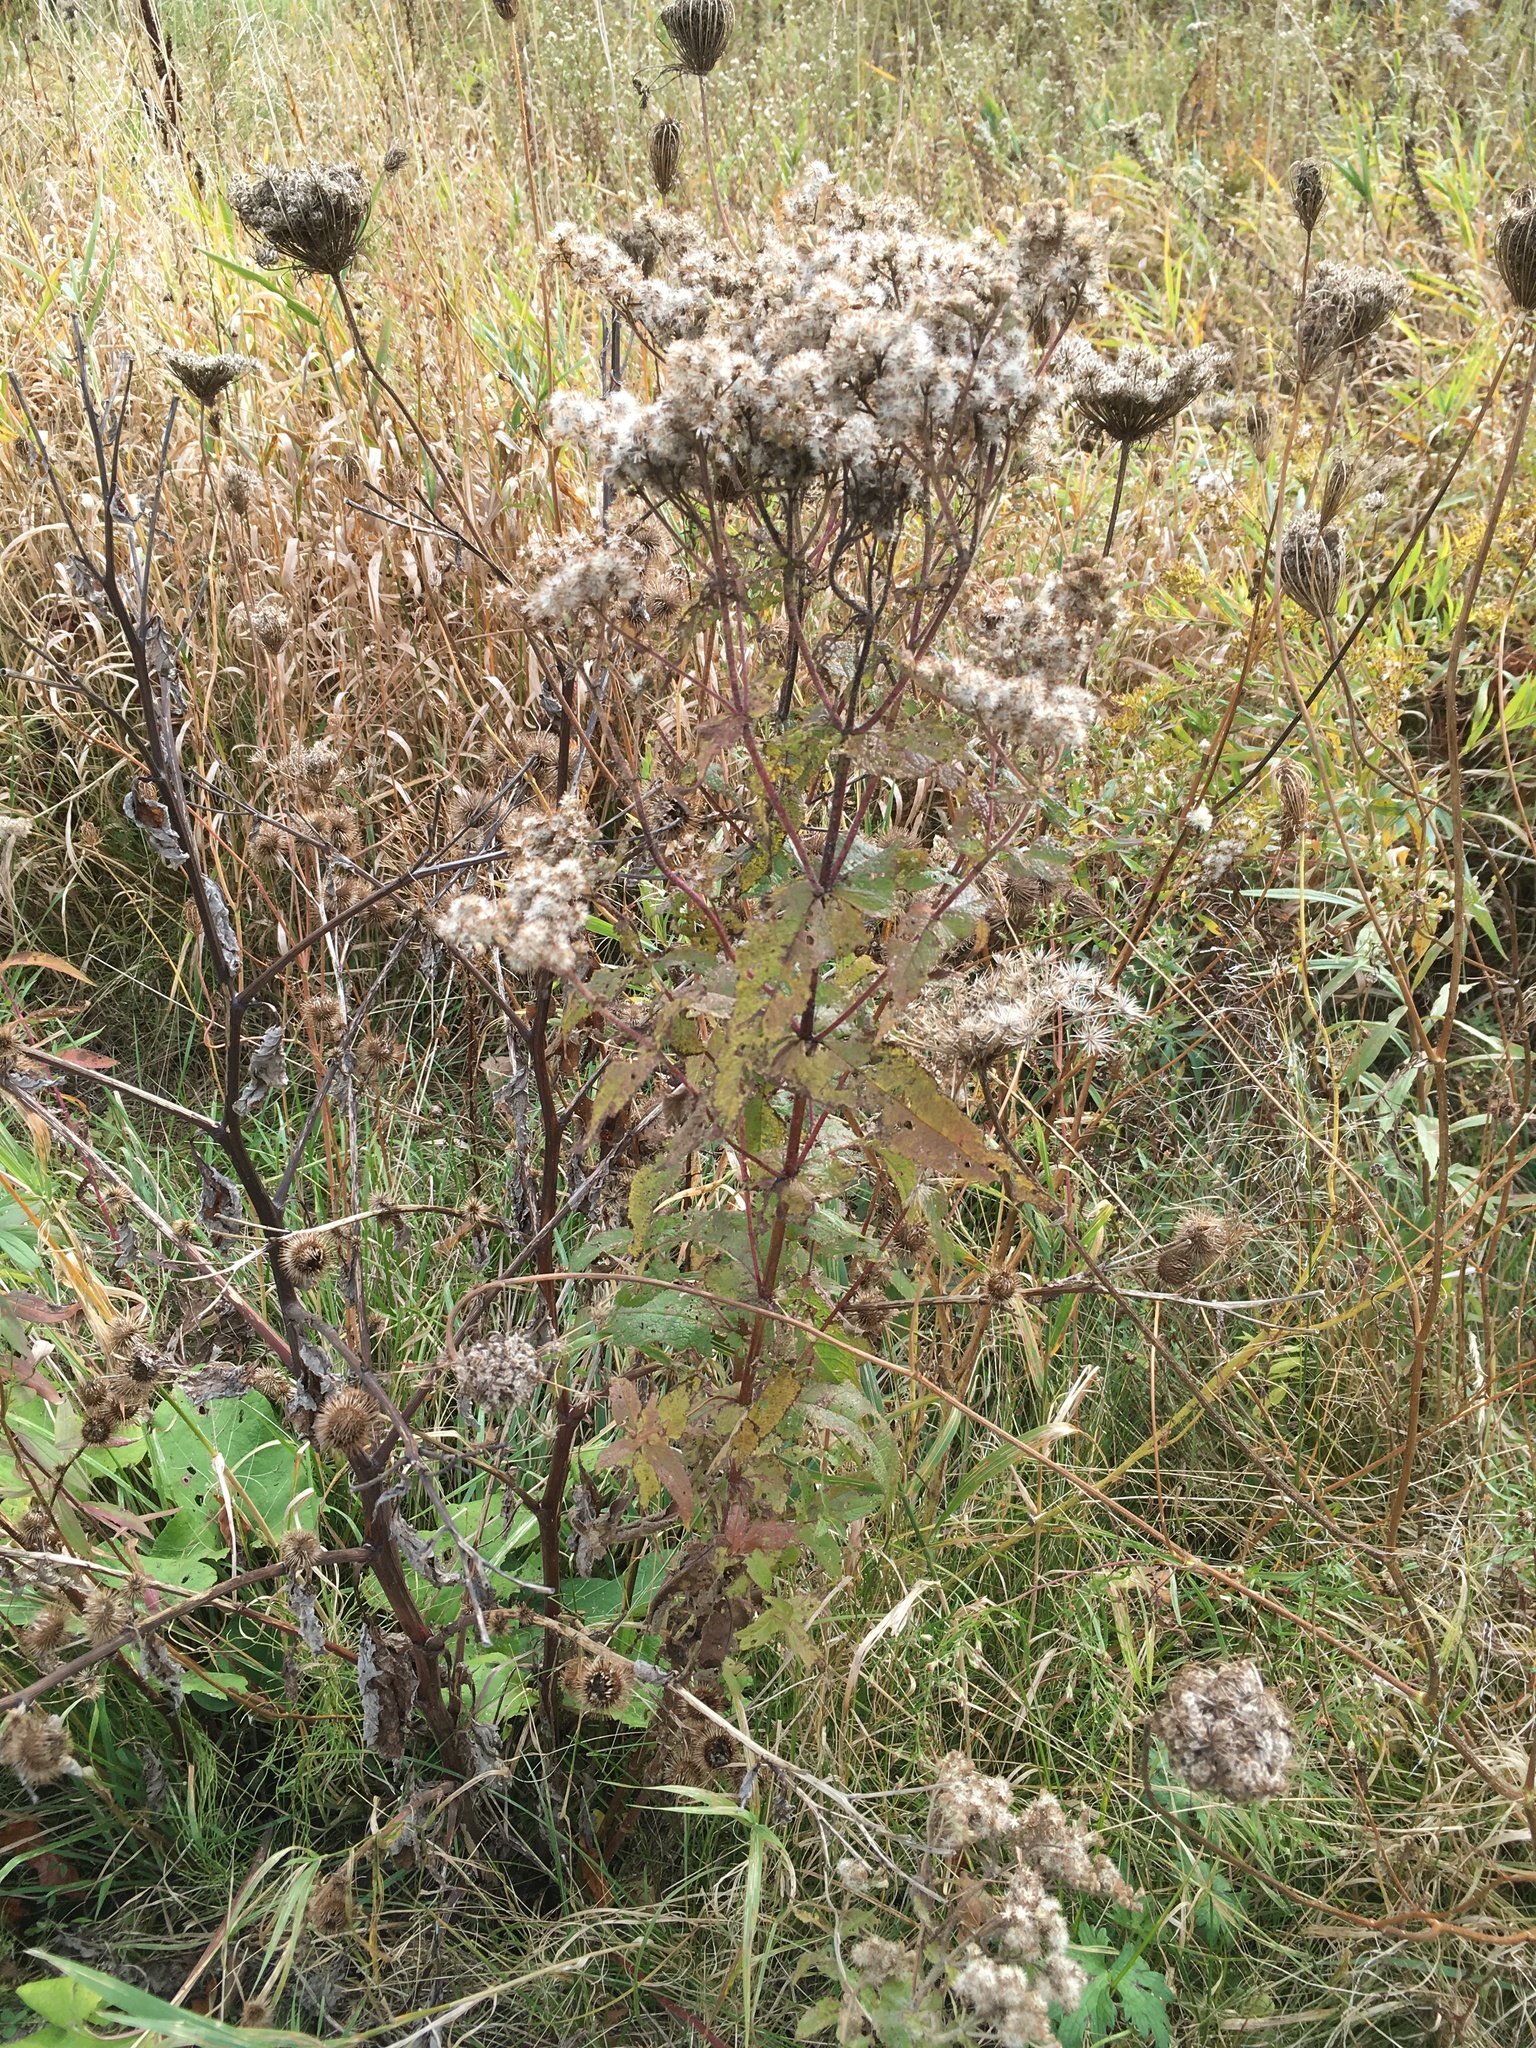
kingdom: Plantae
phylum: Tracheophyta
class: Magnoliopsida
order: Asterales
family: Asteraceae
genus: Eupatorium
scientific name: Eupatorium perfoliatum
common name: Boneset
